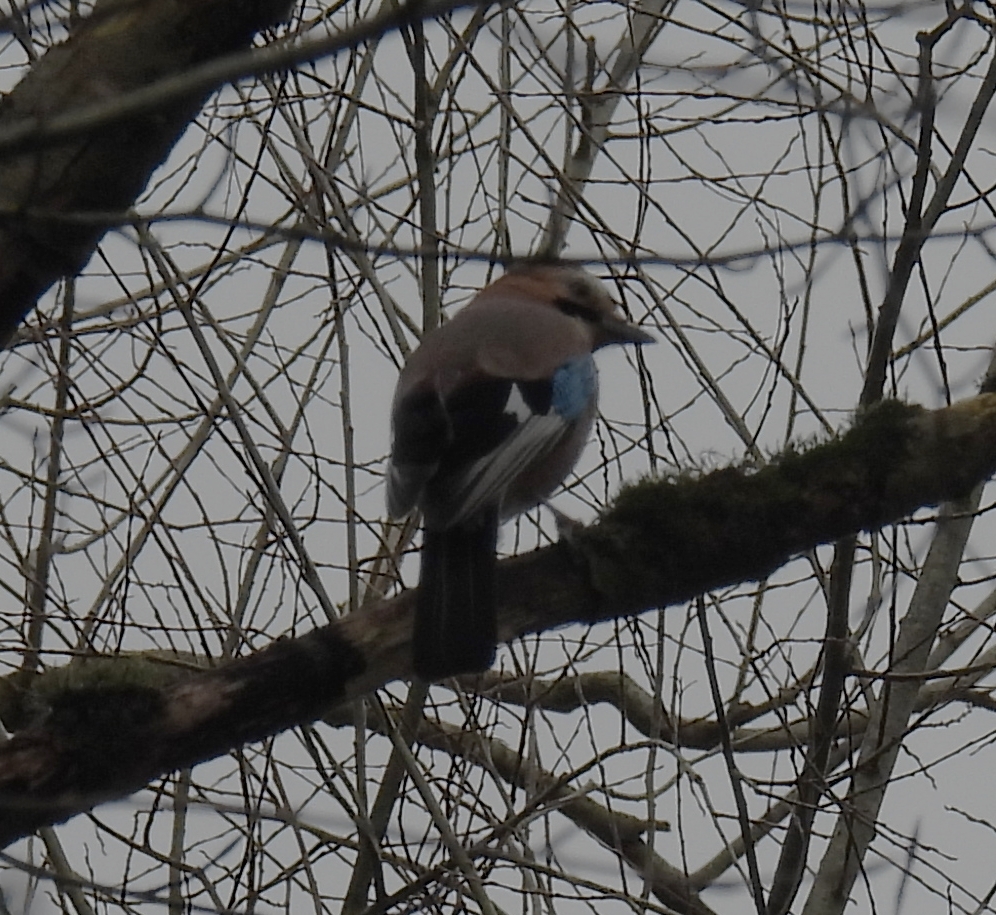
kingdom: Animalia
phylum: Chordata
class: Aves
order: Passeriformes
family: Corvidae
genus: Garrulus
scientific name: Garrulus glandarius
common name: Eurasian jay
